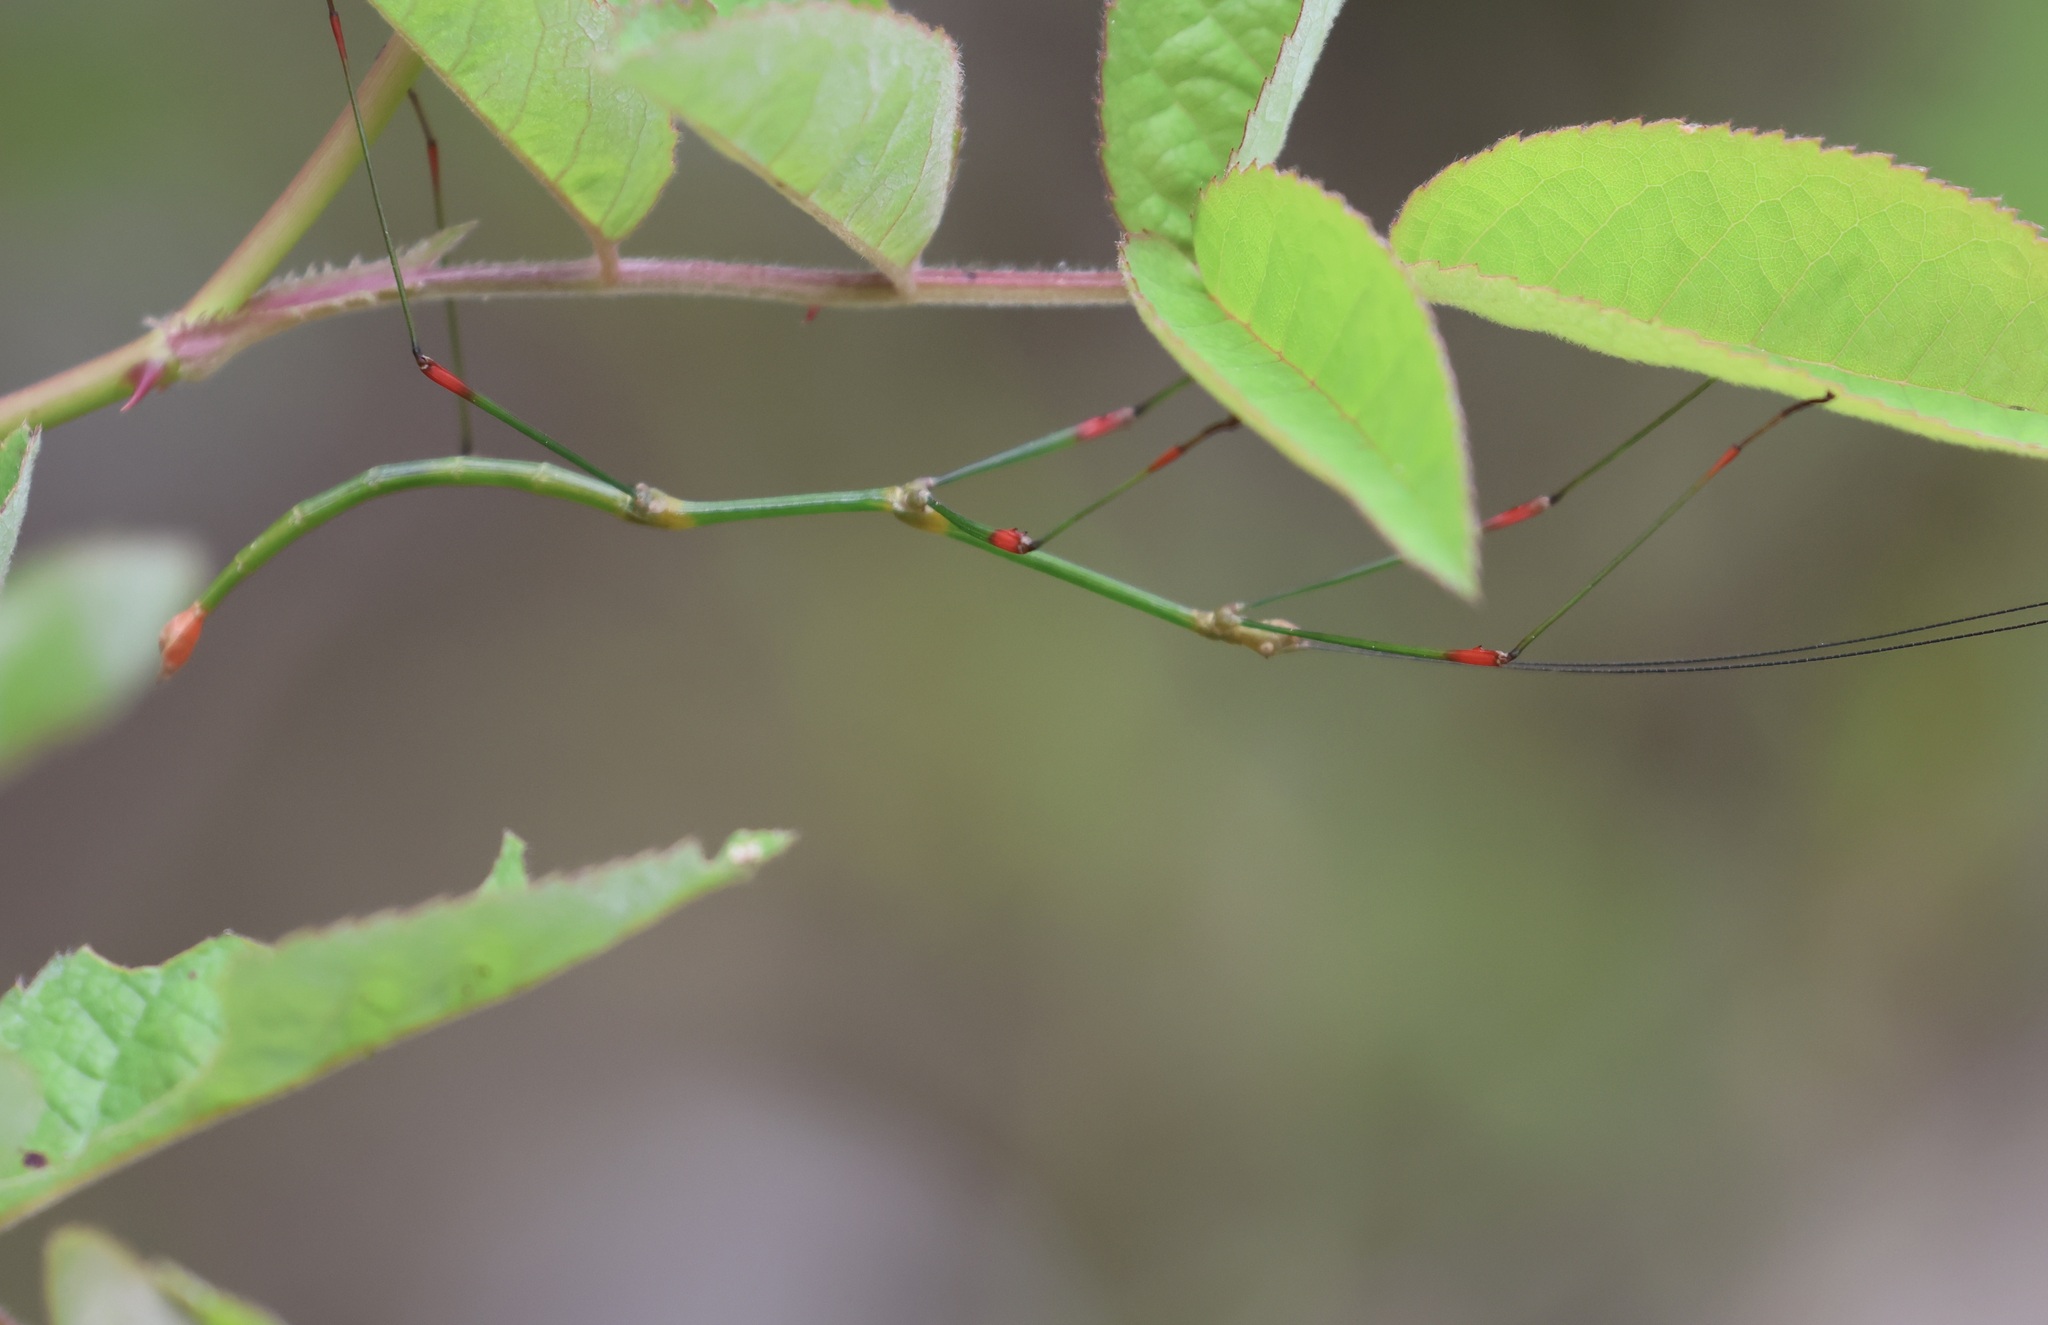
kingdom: Animalia
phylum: Arthropoda
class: Insecta
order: Phasmida
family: Lonchodidae
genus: Lonchodes
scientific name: Lonchodes sanguineoligatus
